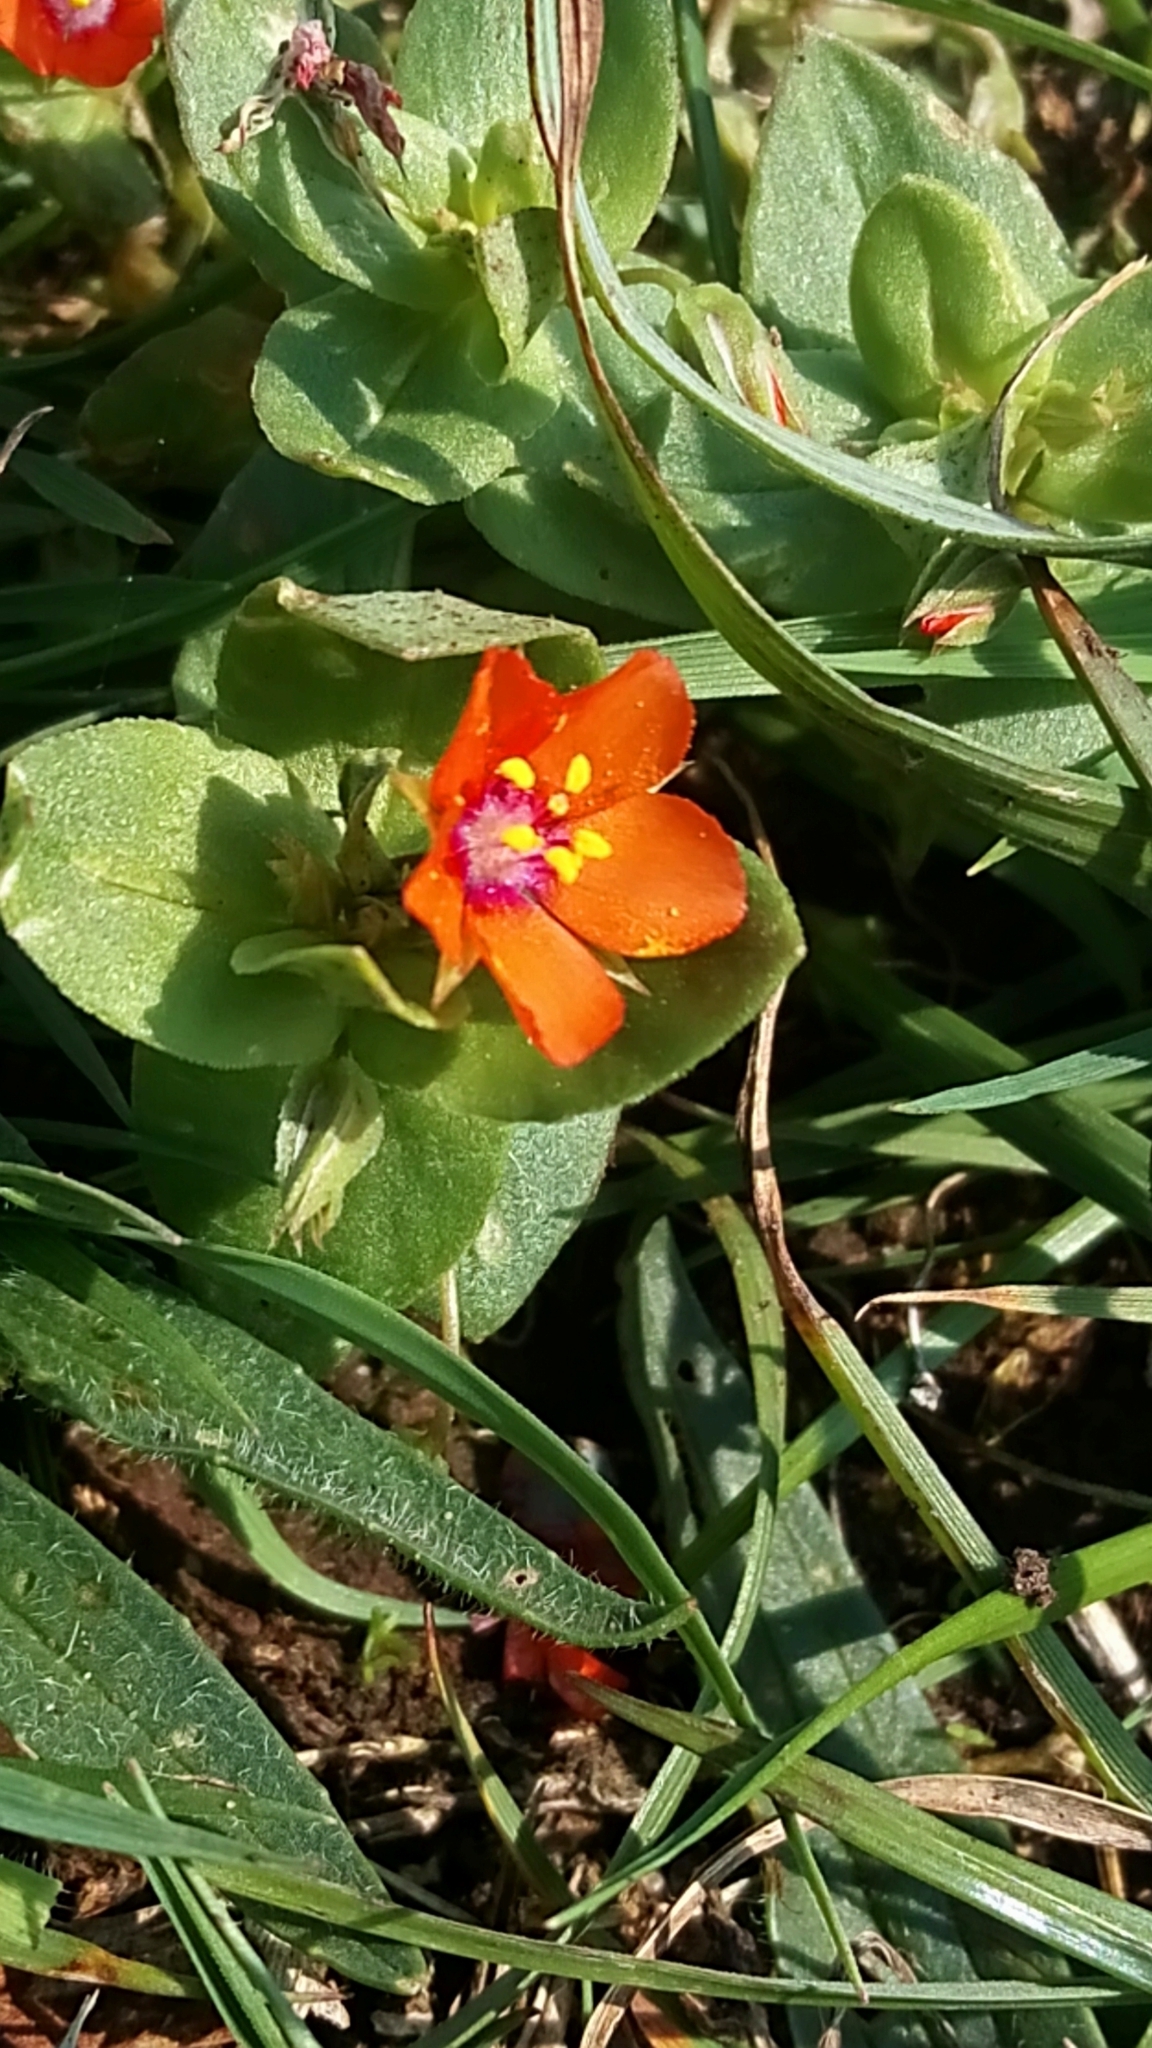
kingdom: Plantae
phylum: Tracheophyta
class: Magnoliopsida
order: Ericales
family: Primulaceae
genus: Lysimachia
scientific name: Lysimachia arvensis
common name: Scarlet pimpernel
